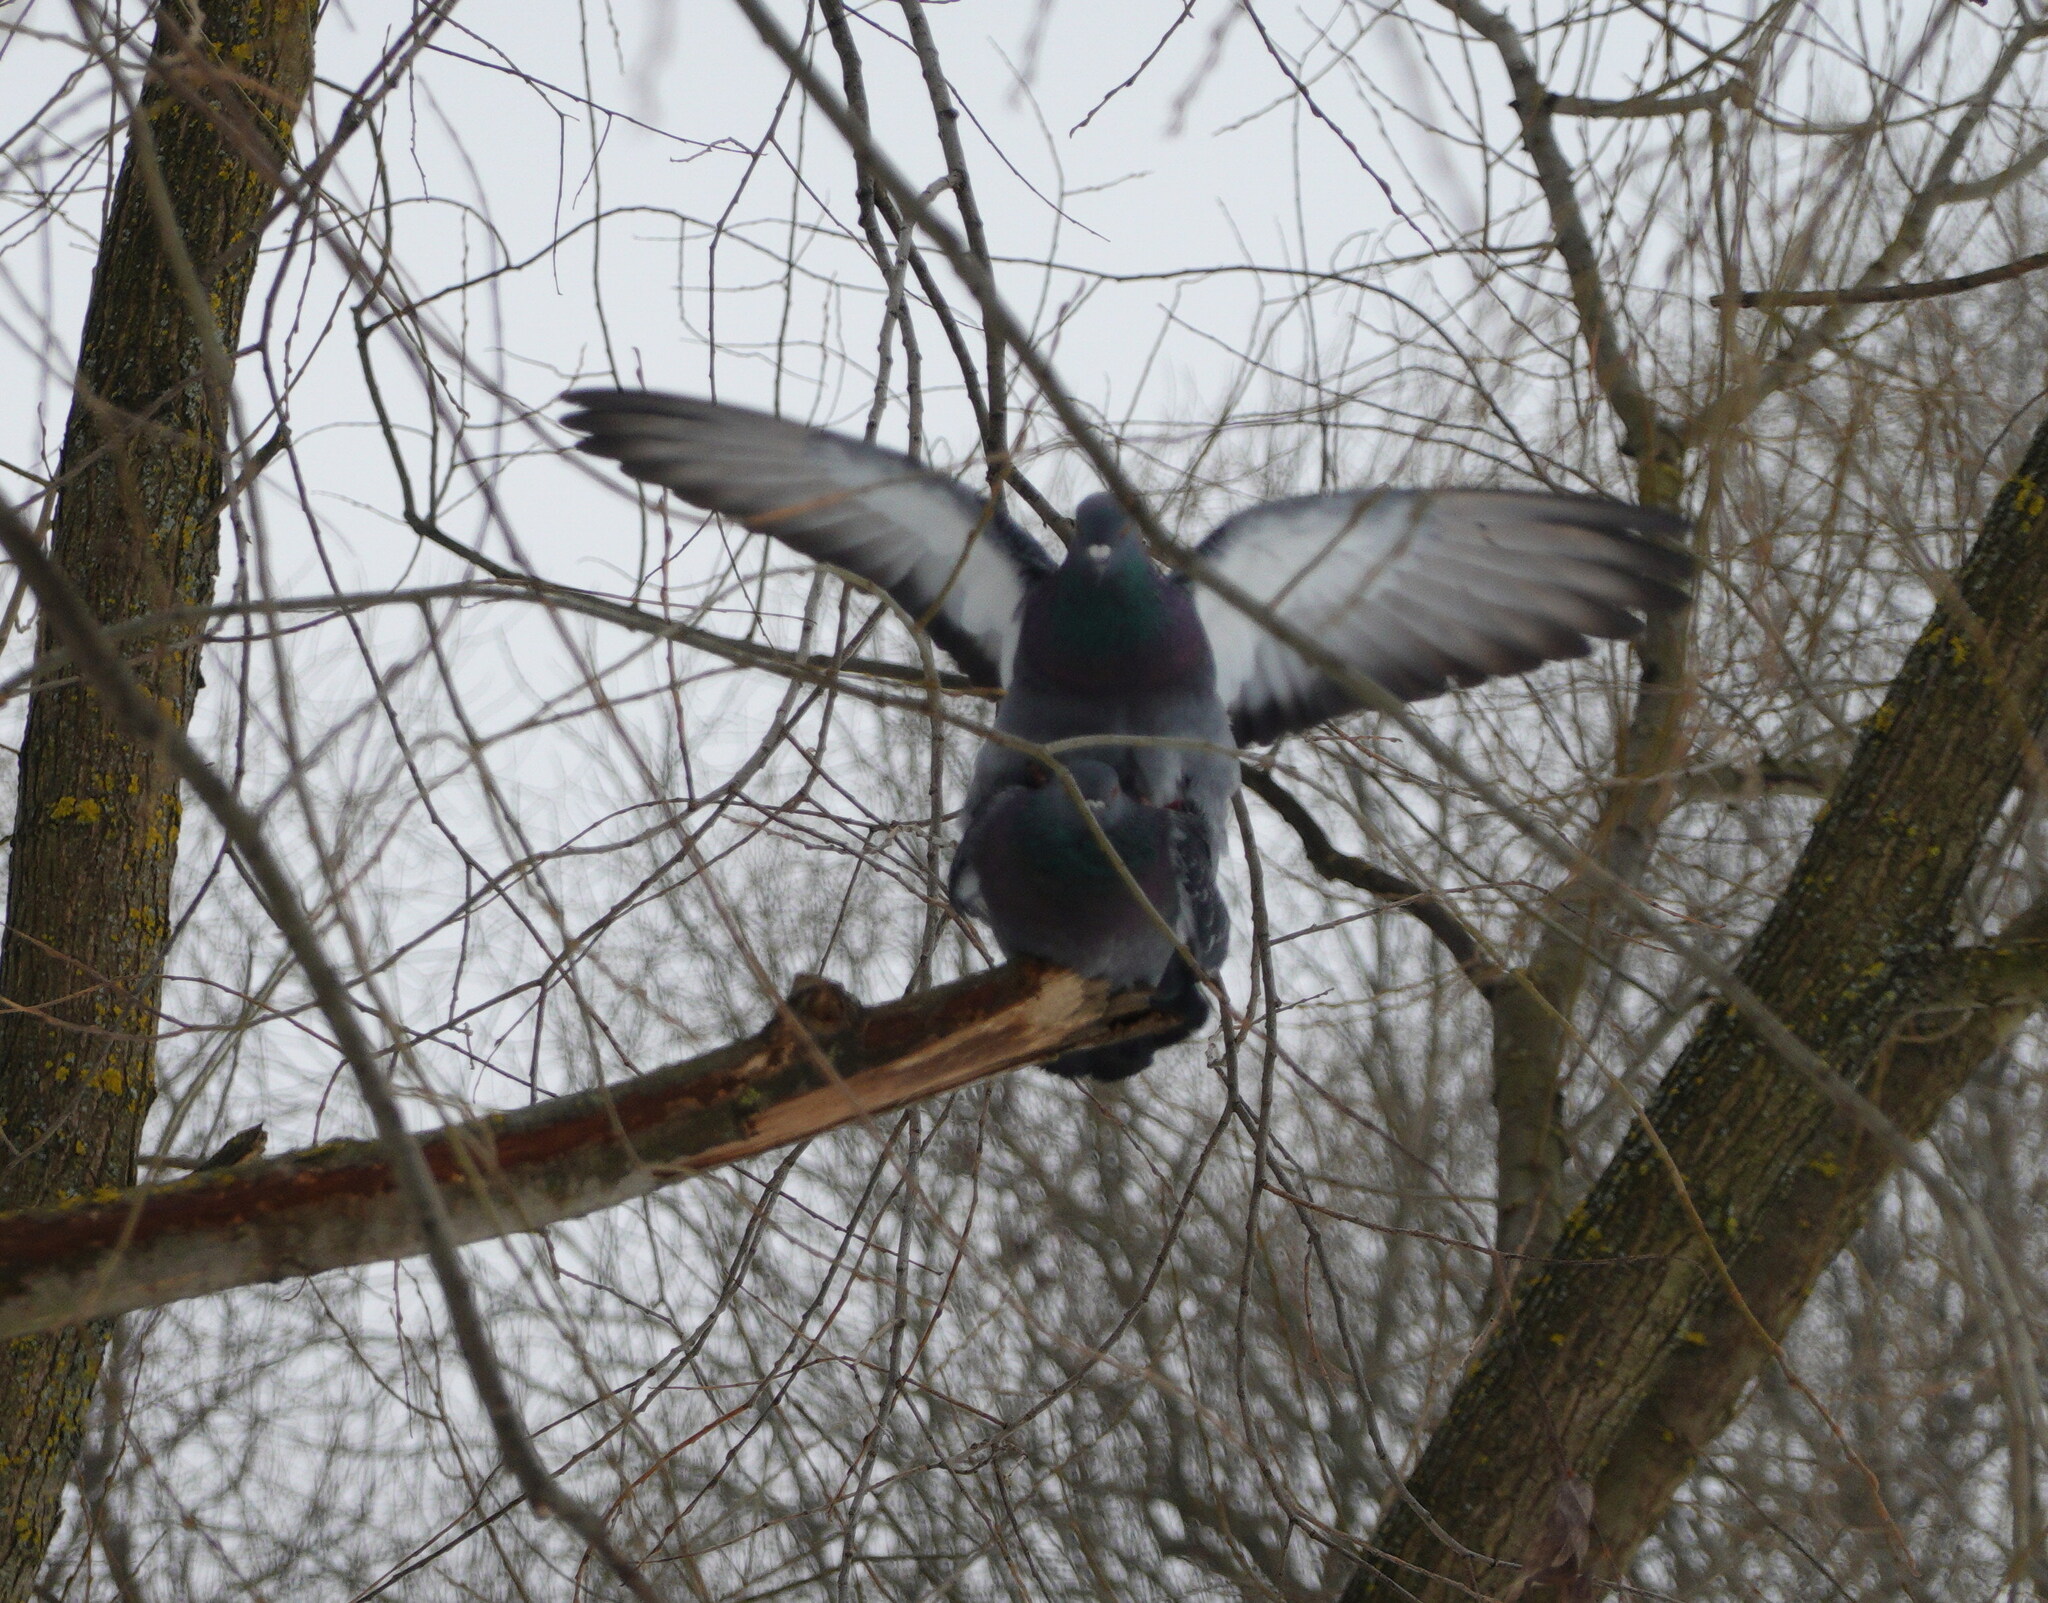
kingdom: Animalia
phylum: Chordata
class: Aves
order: Columbiformes
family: Columbidae
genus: Columba
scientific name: Columba livia
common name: Rock pigeon
